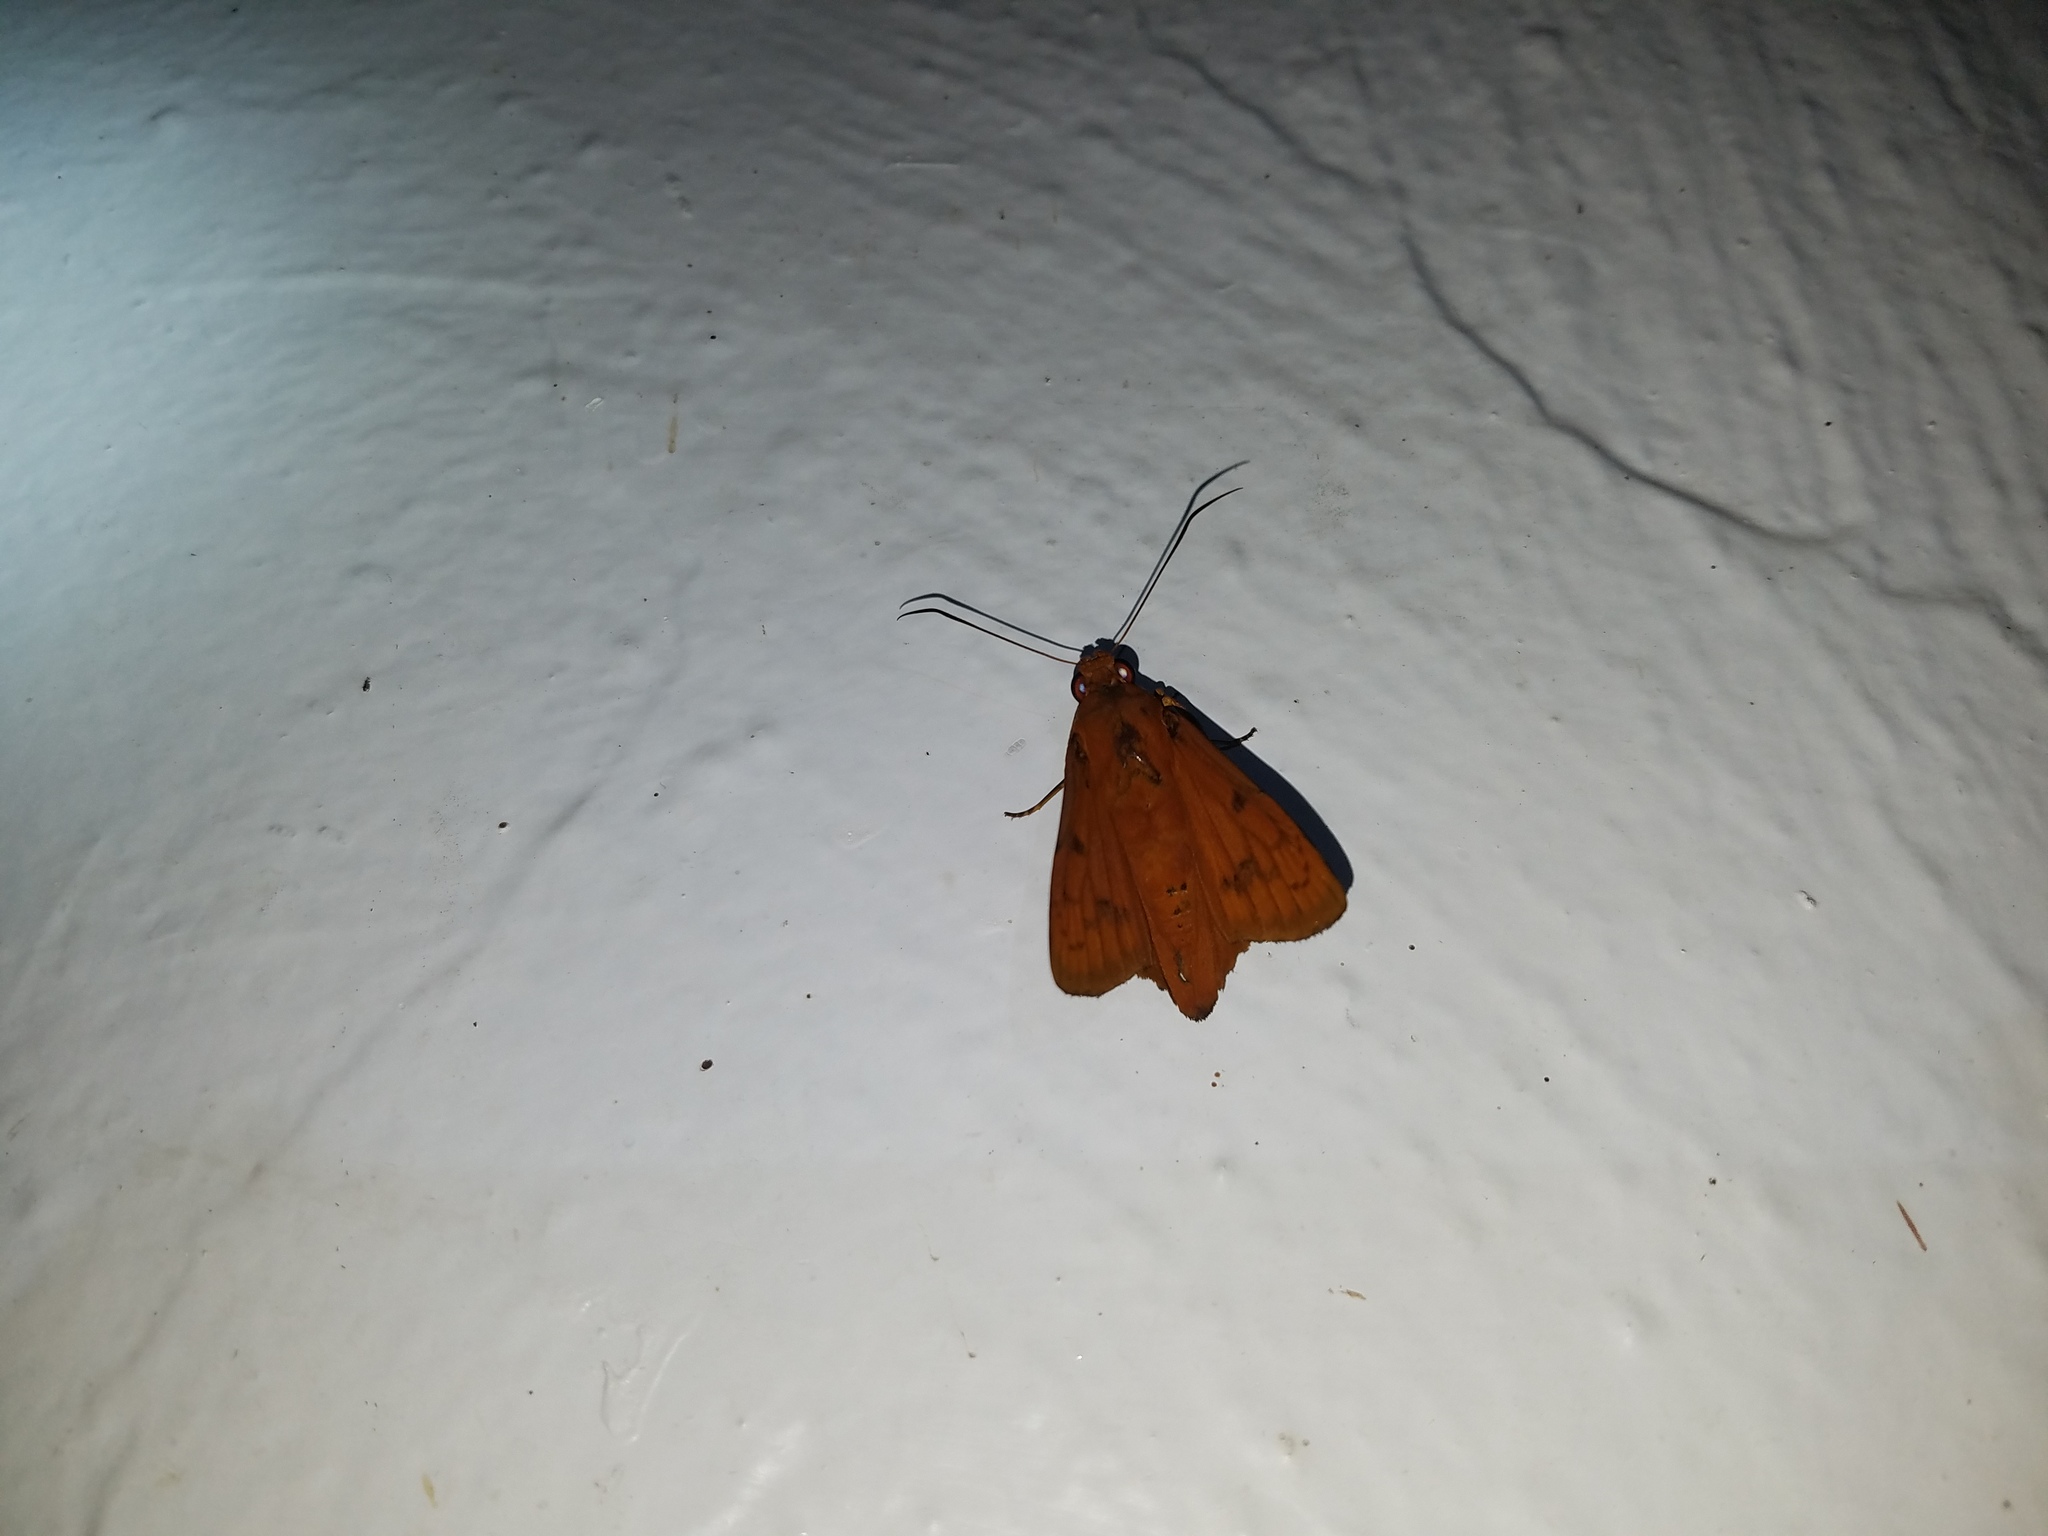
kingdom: Animalia
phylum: Arthropoda
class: Insecta
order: Lepidoptera
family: Hesperiidae
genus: Bungalotis
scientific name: Bungalotis midas
